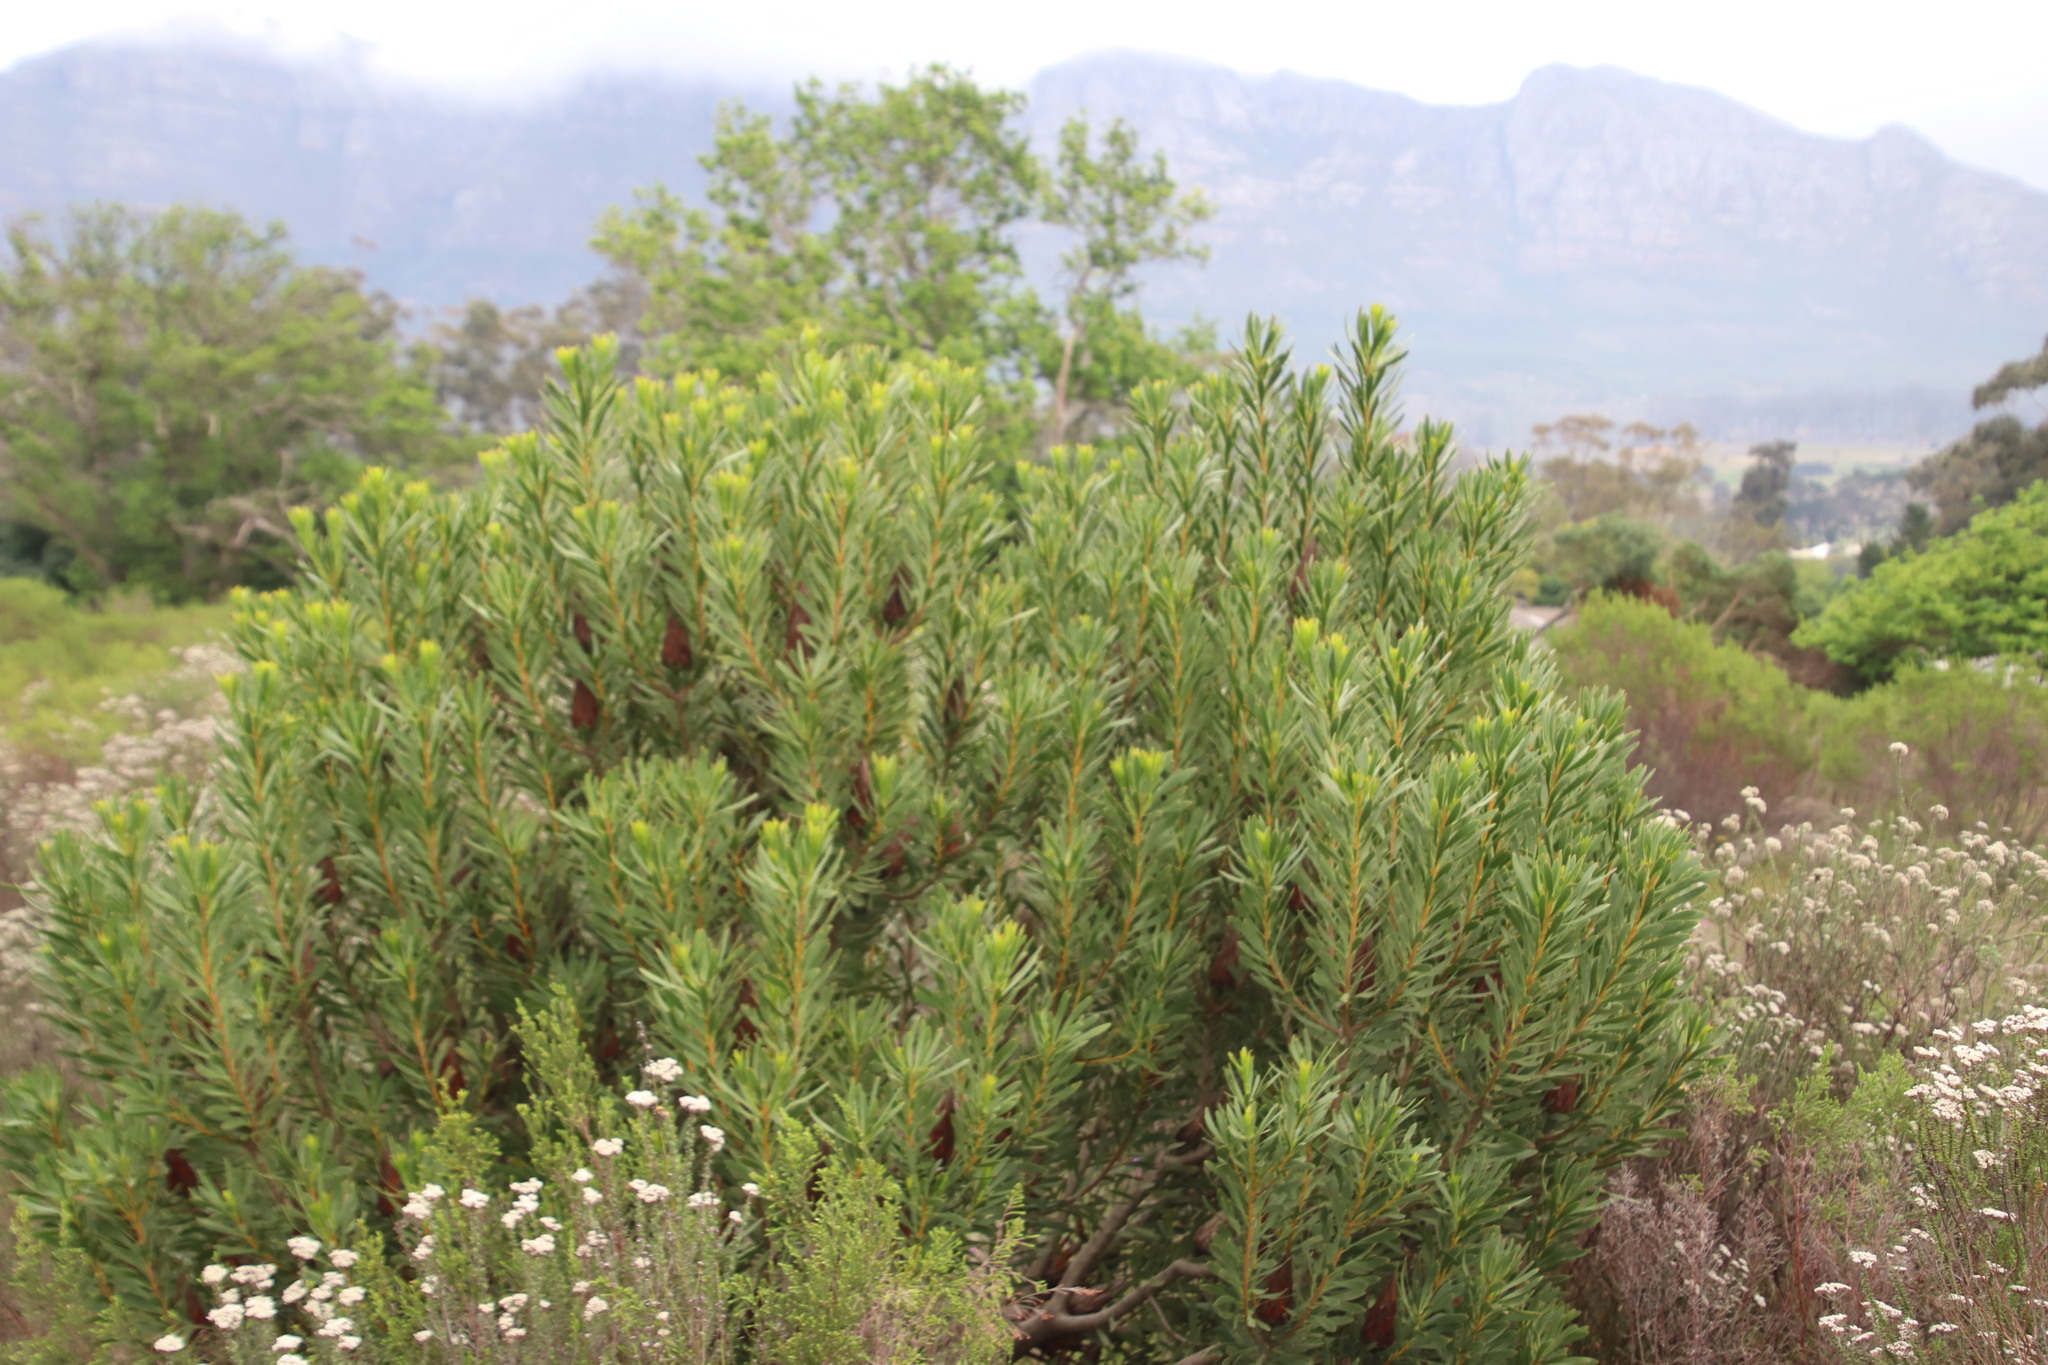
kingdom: Plantae
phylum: Tracheophyta
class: Magnoliopsida
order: Proteales
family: Proteaceae
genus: Protea
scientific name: Protea repens
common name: Sugarbush
